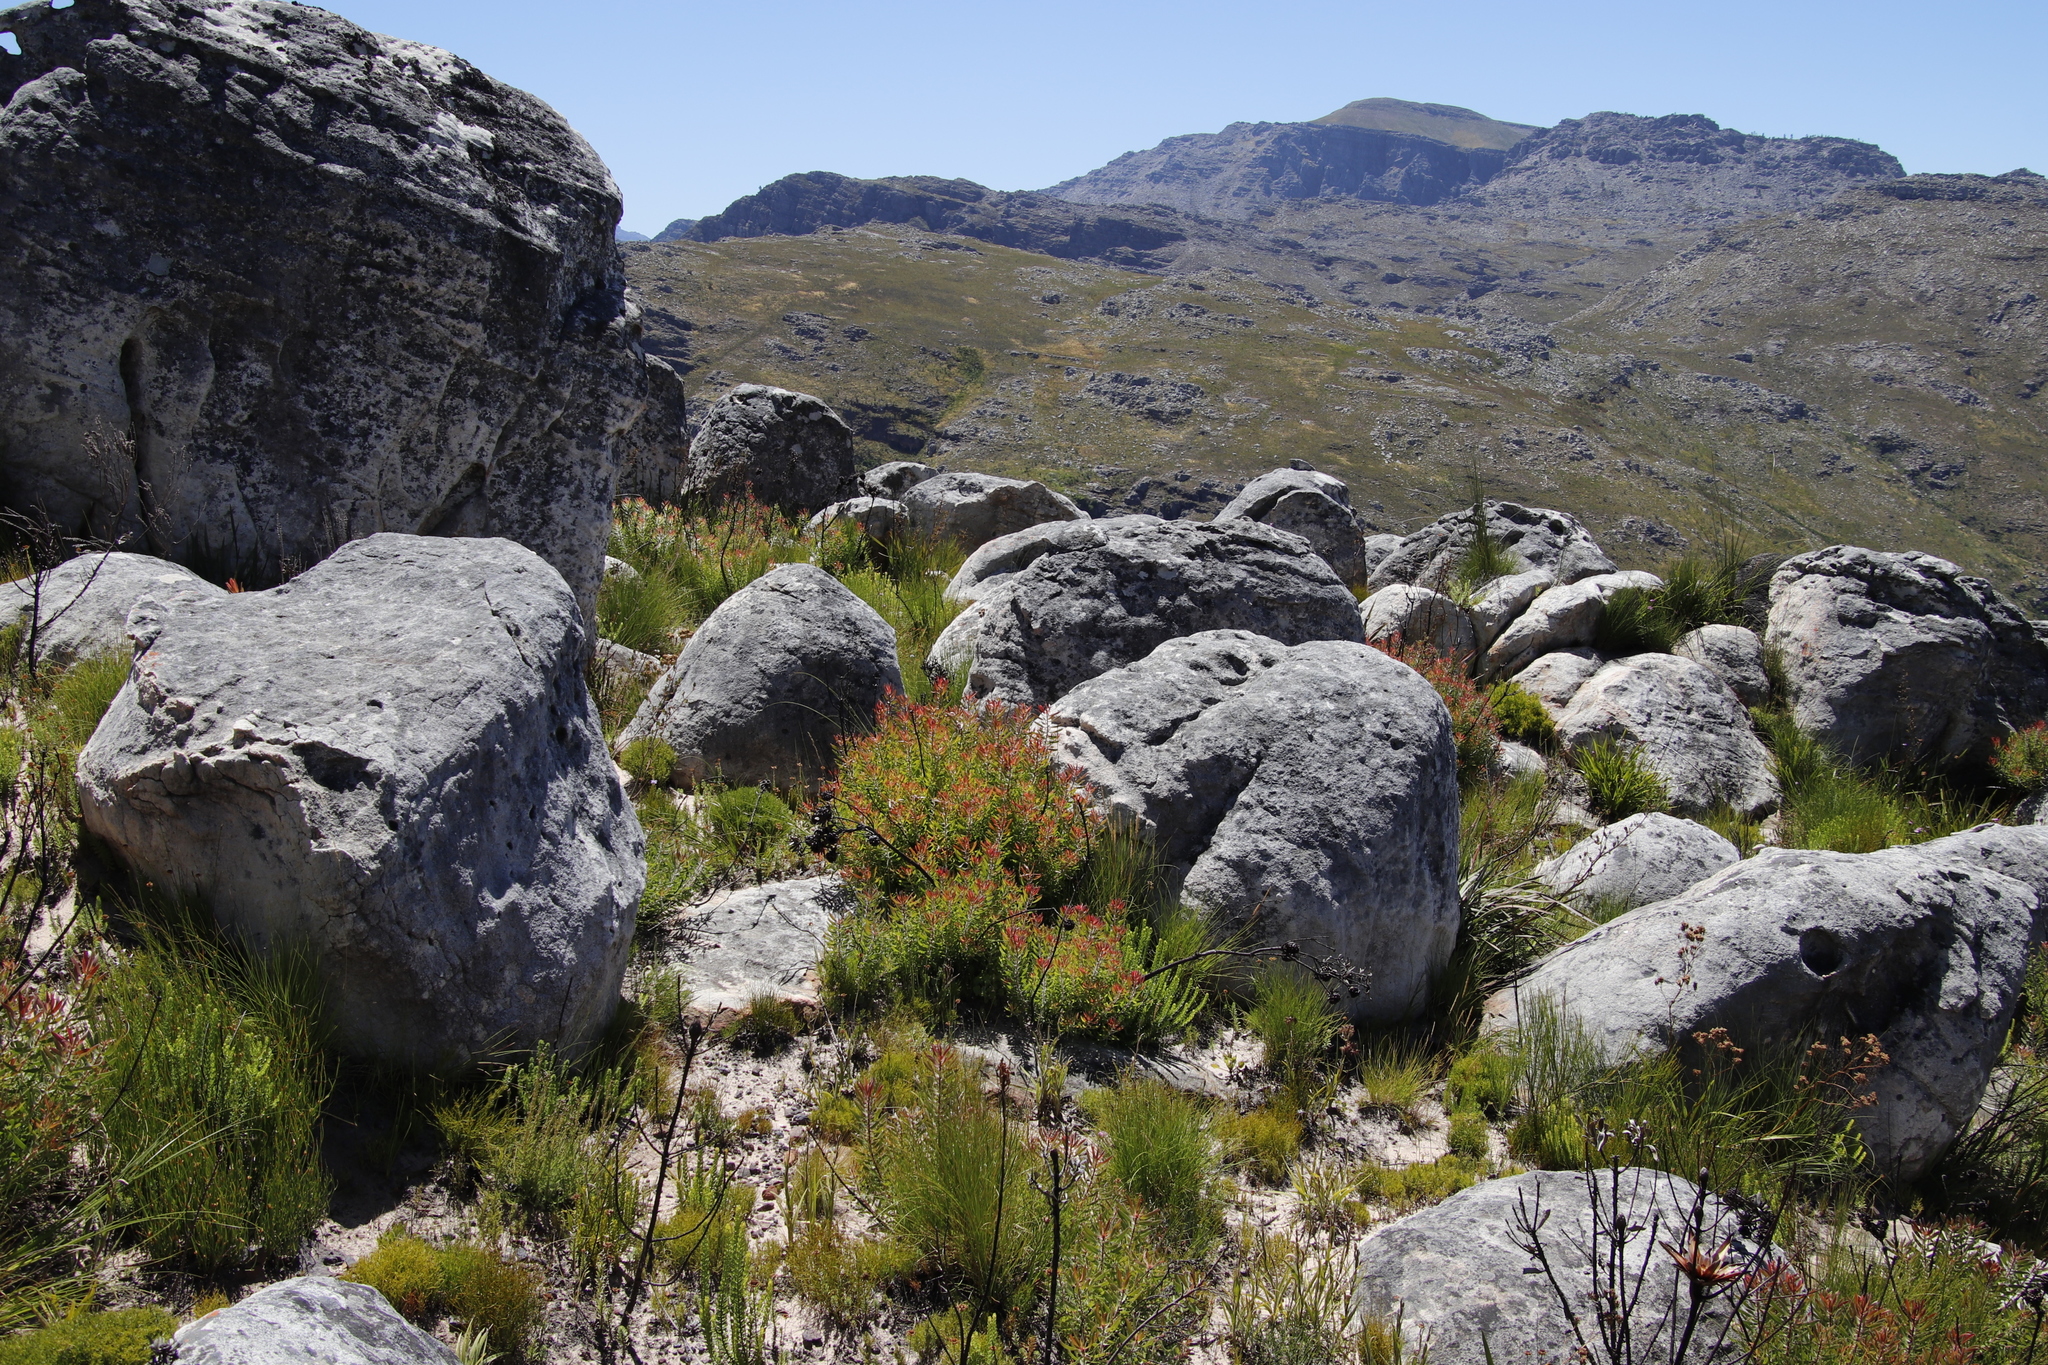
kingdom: Plantae
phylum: Tracheophyta
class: Magnoliopsida
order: Proteales
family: Proteaceae
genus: Leucadendron
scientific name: Leucadendron spissifolium
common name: Spear-leaf conebush
